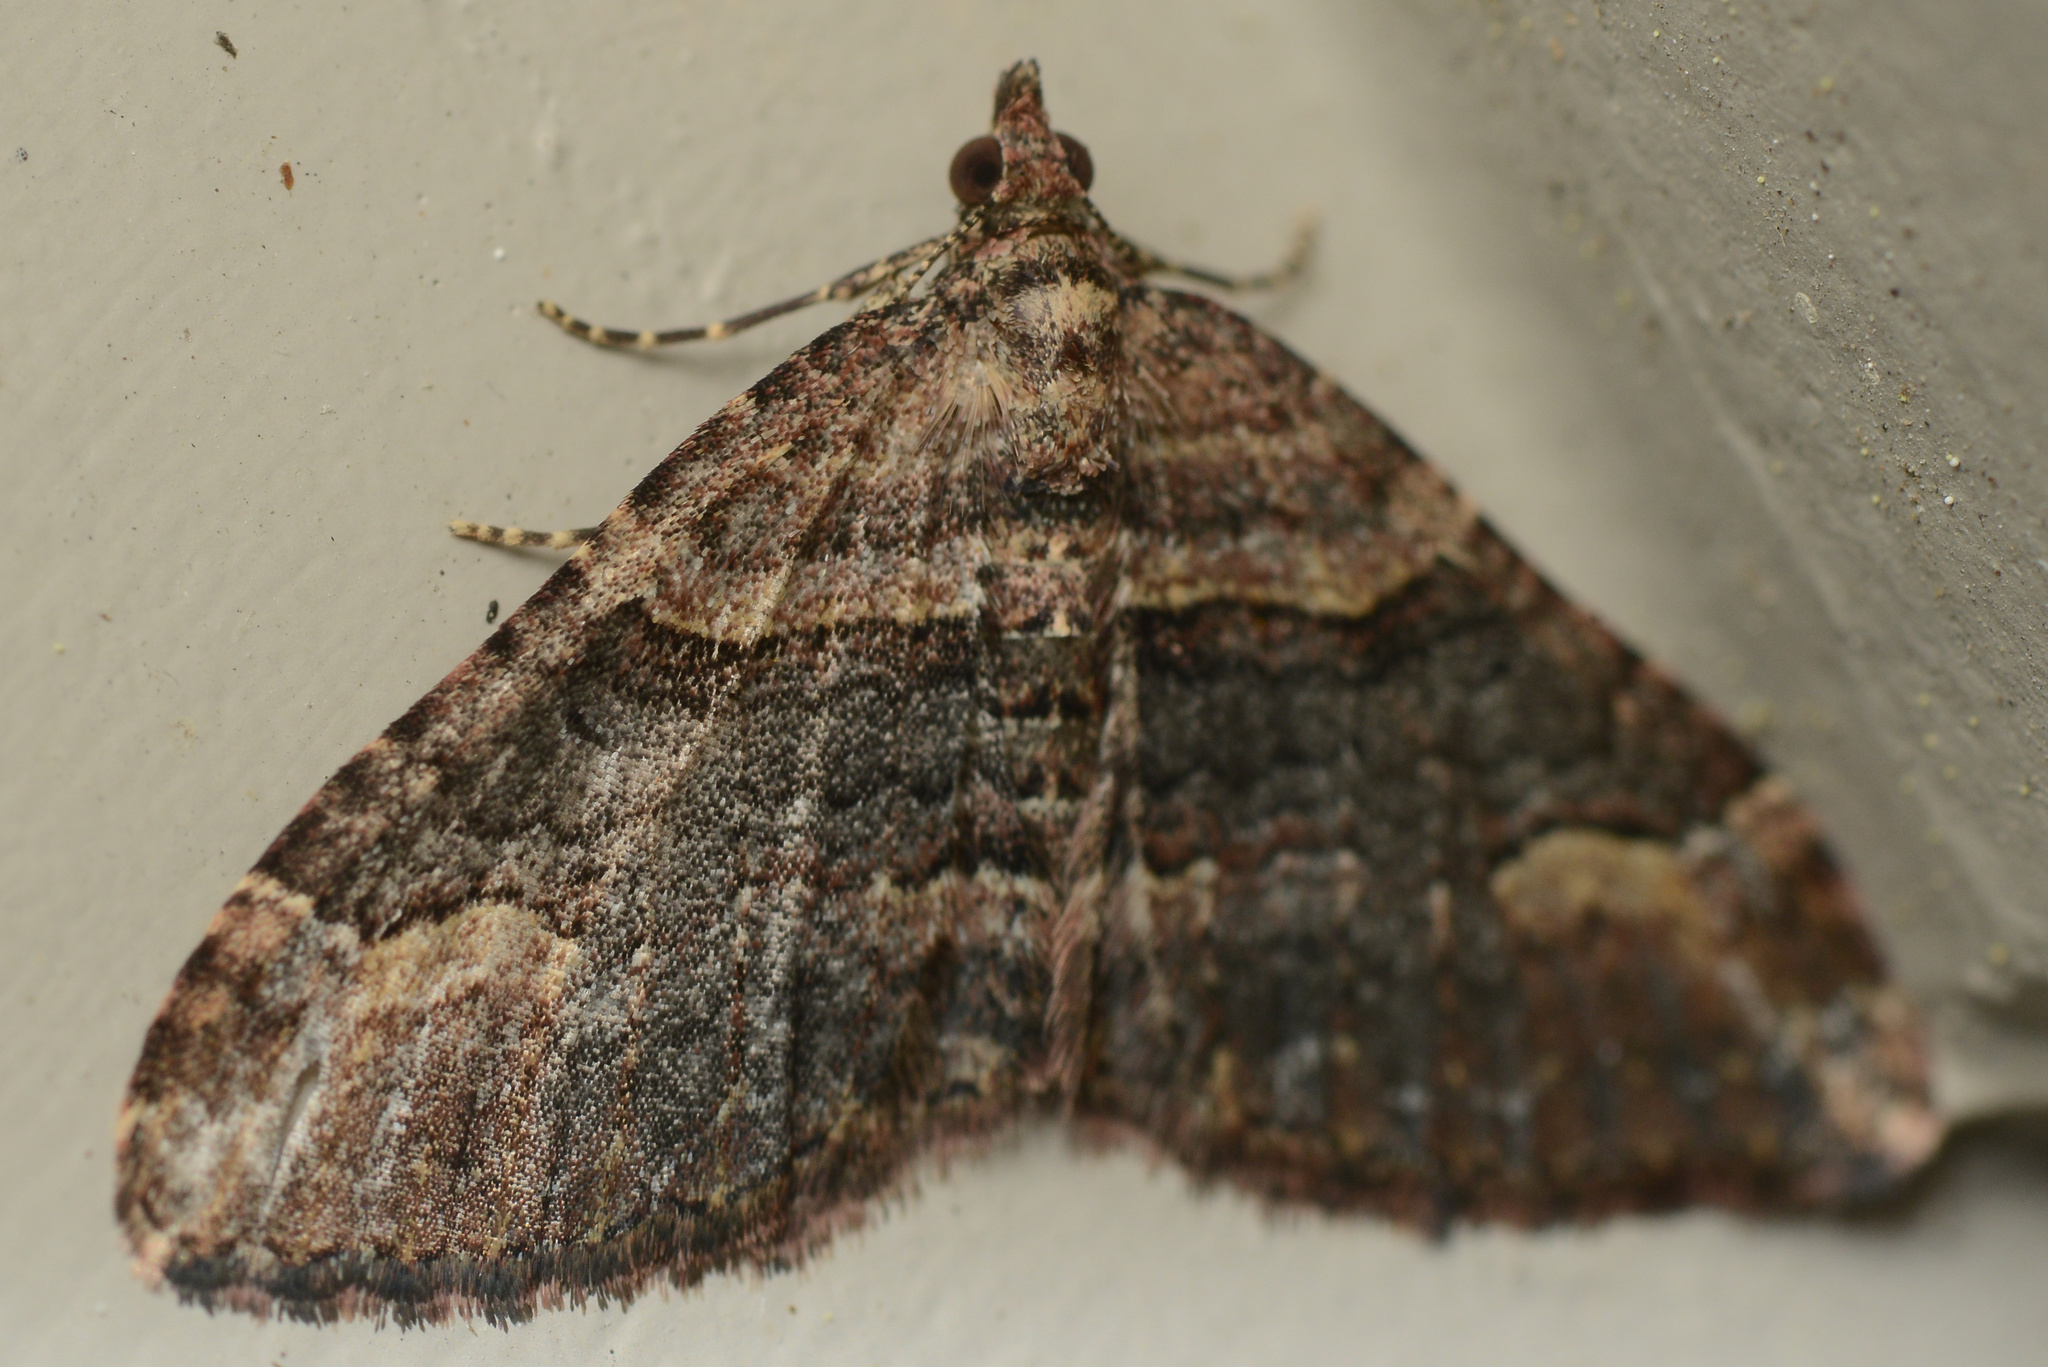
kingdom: Animalia
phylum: Arthropoda
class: Insecta
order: Lepidoptera
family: Geometridae
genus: Epyaxa
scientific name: Epyaxa lucidata
